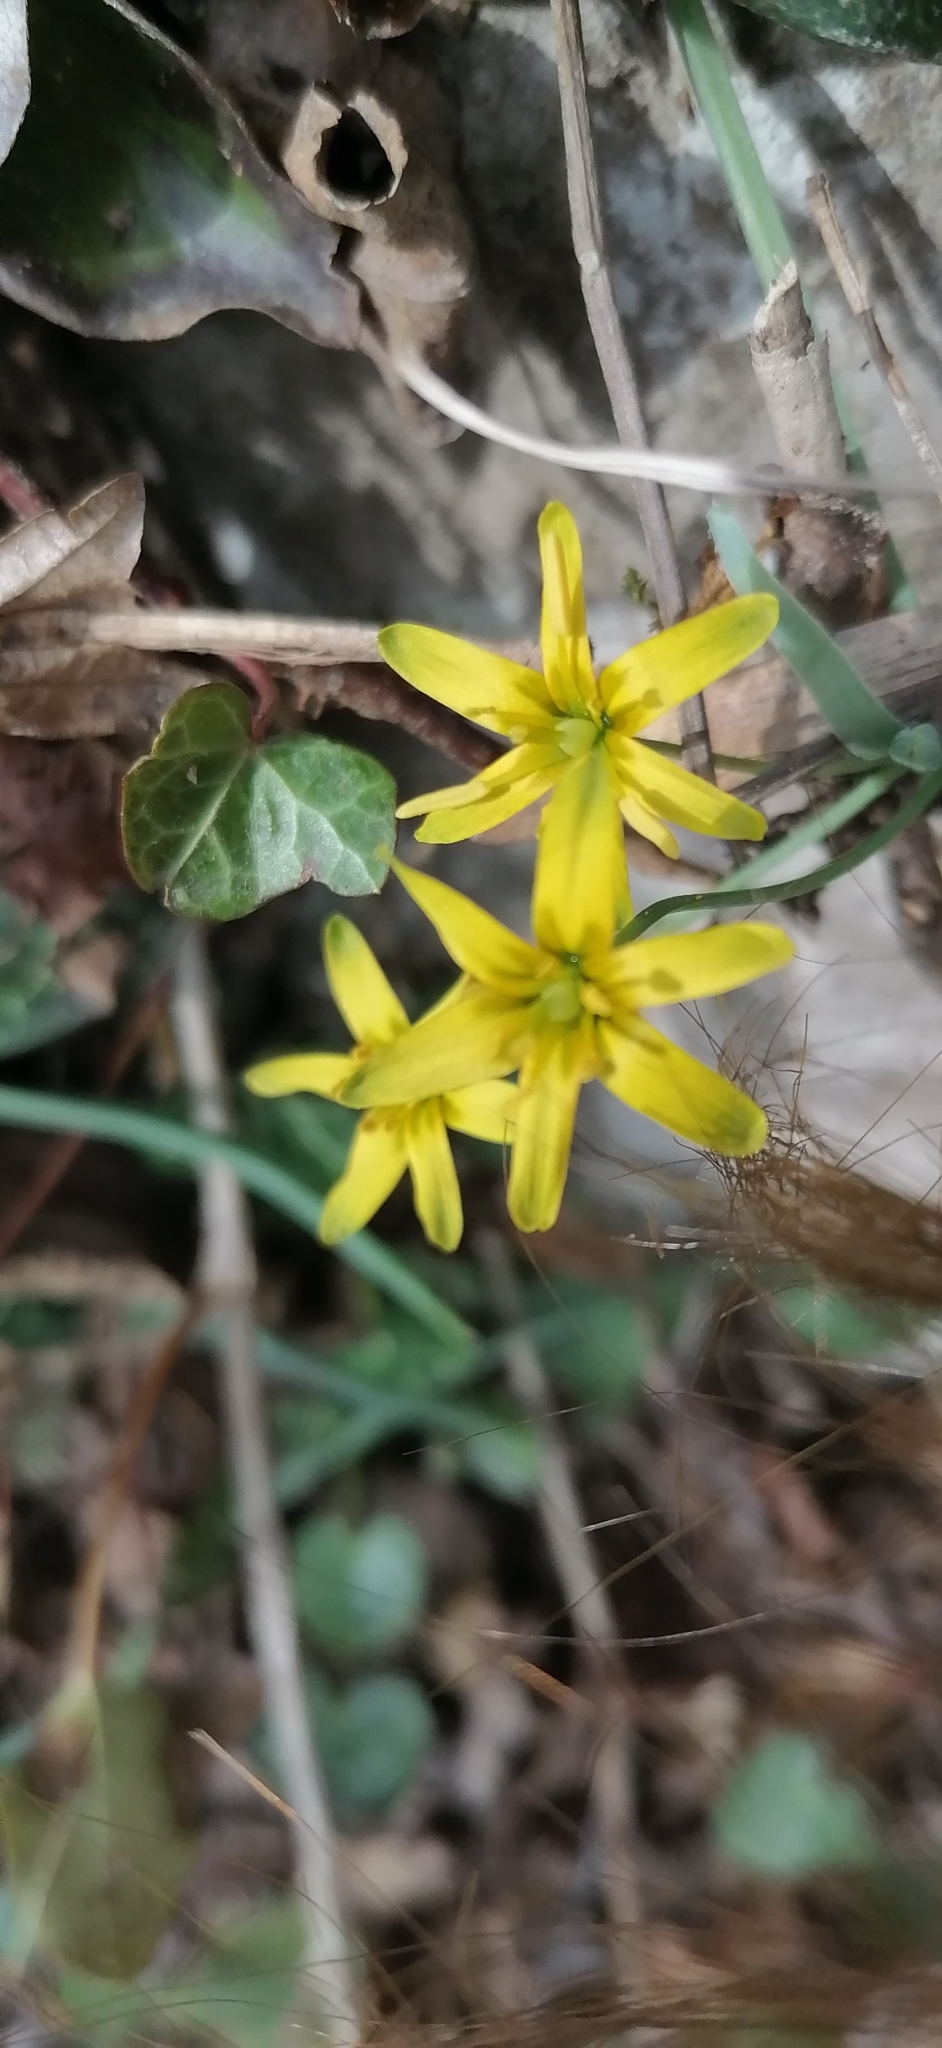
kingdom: Plantae
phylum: Tracheophyta
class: Liliopsida
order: Liliales
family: Liliaceae
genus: Gagea
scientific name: Gagea lutea
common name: Yellow star-of-bethlehem
